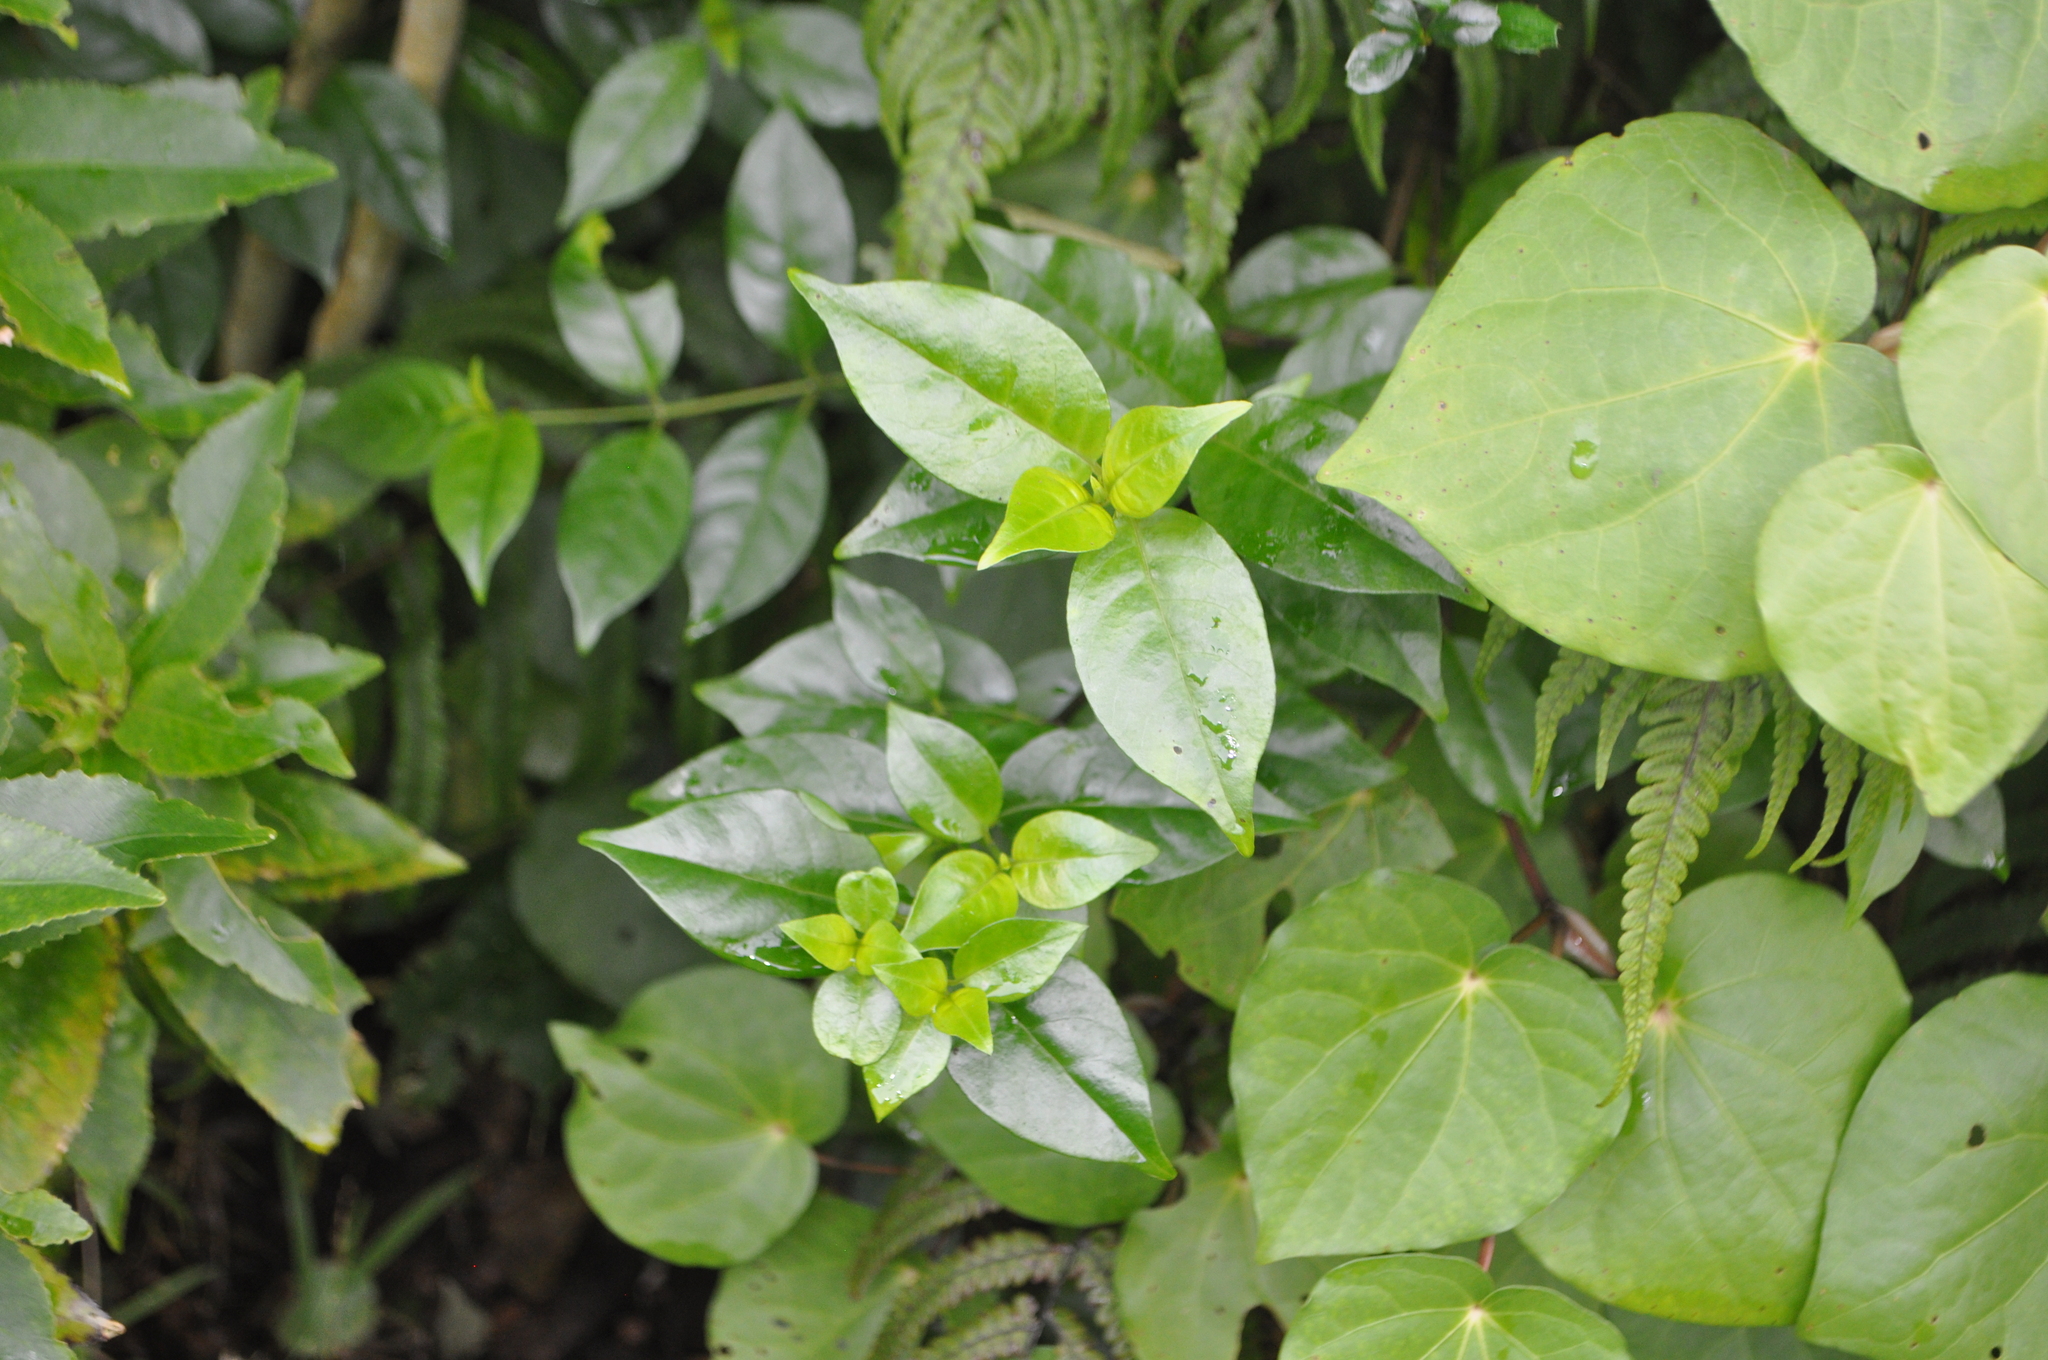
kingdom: Plantae
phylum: Tracheophyta
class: Magnoliopsida
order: Gentianales
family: Loganiaceae
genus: Geniostoma
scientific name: Geniostoma ligustrifolium
